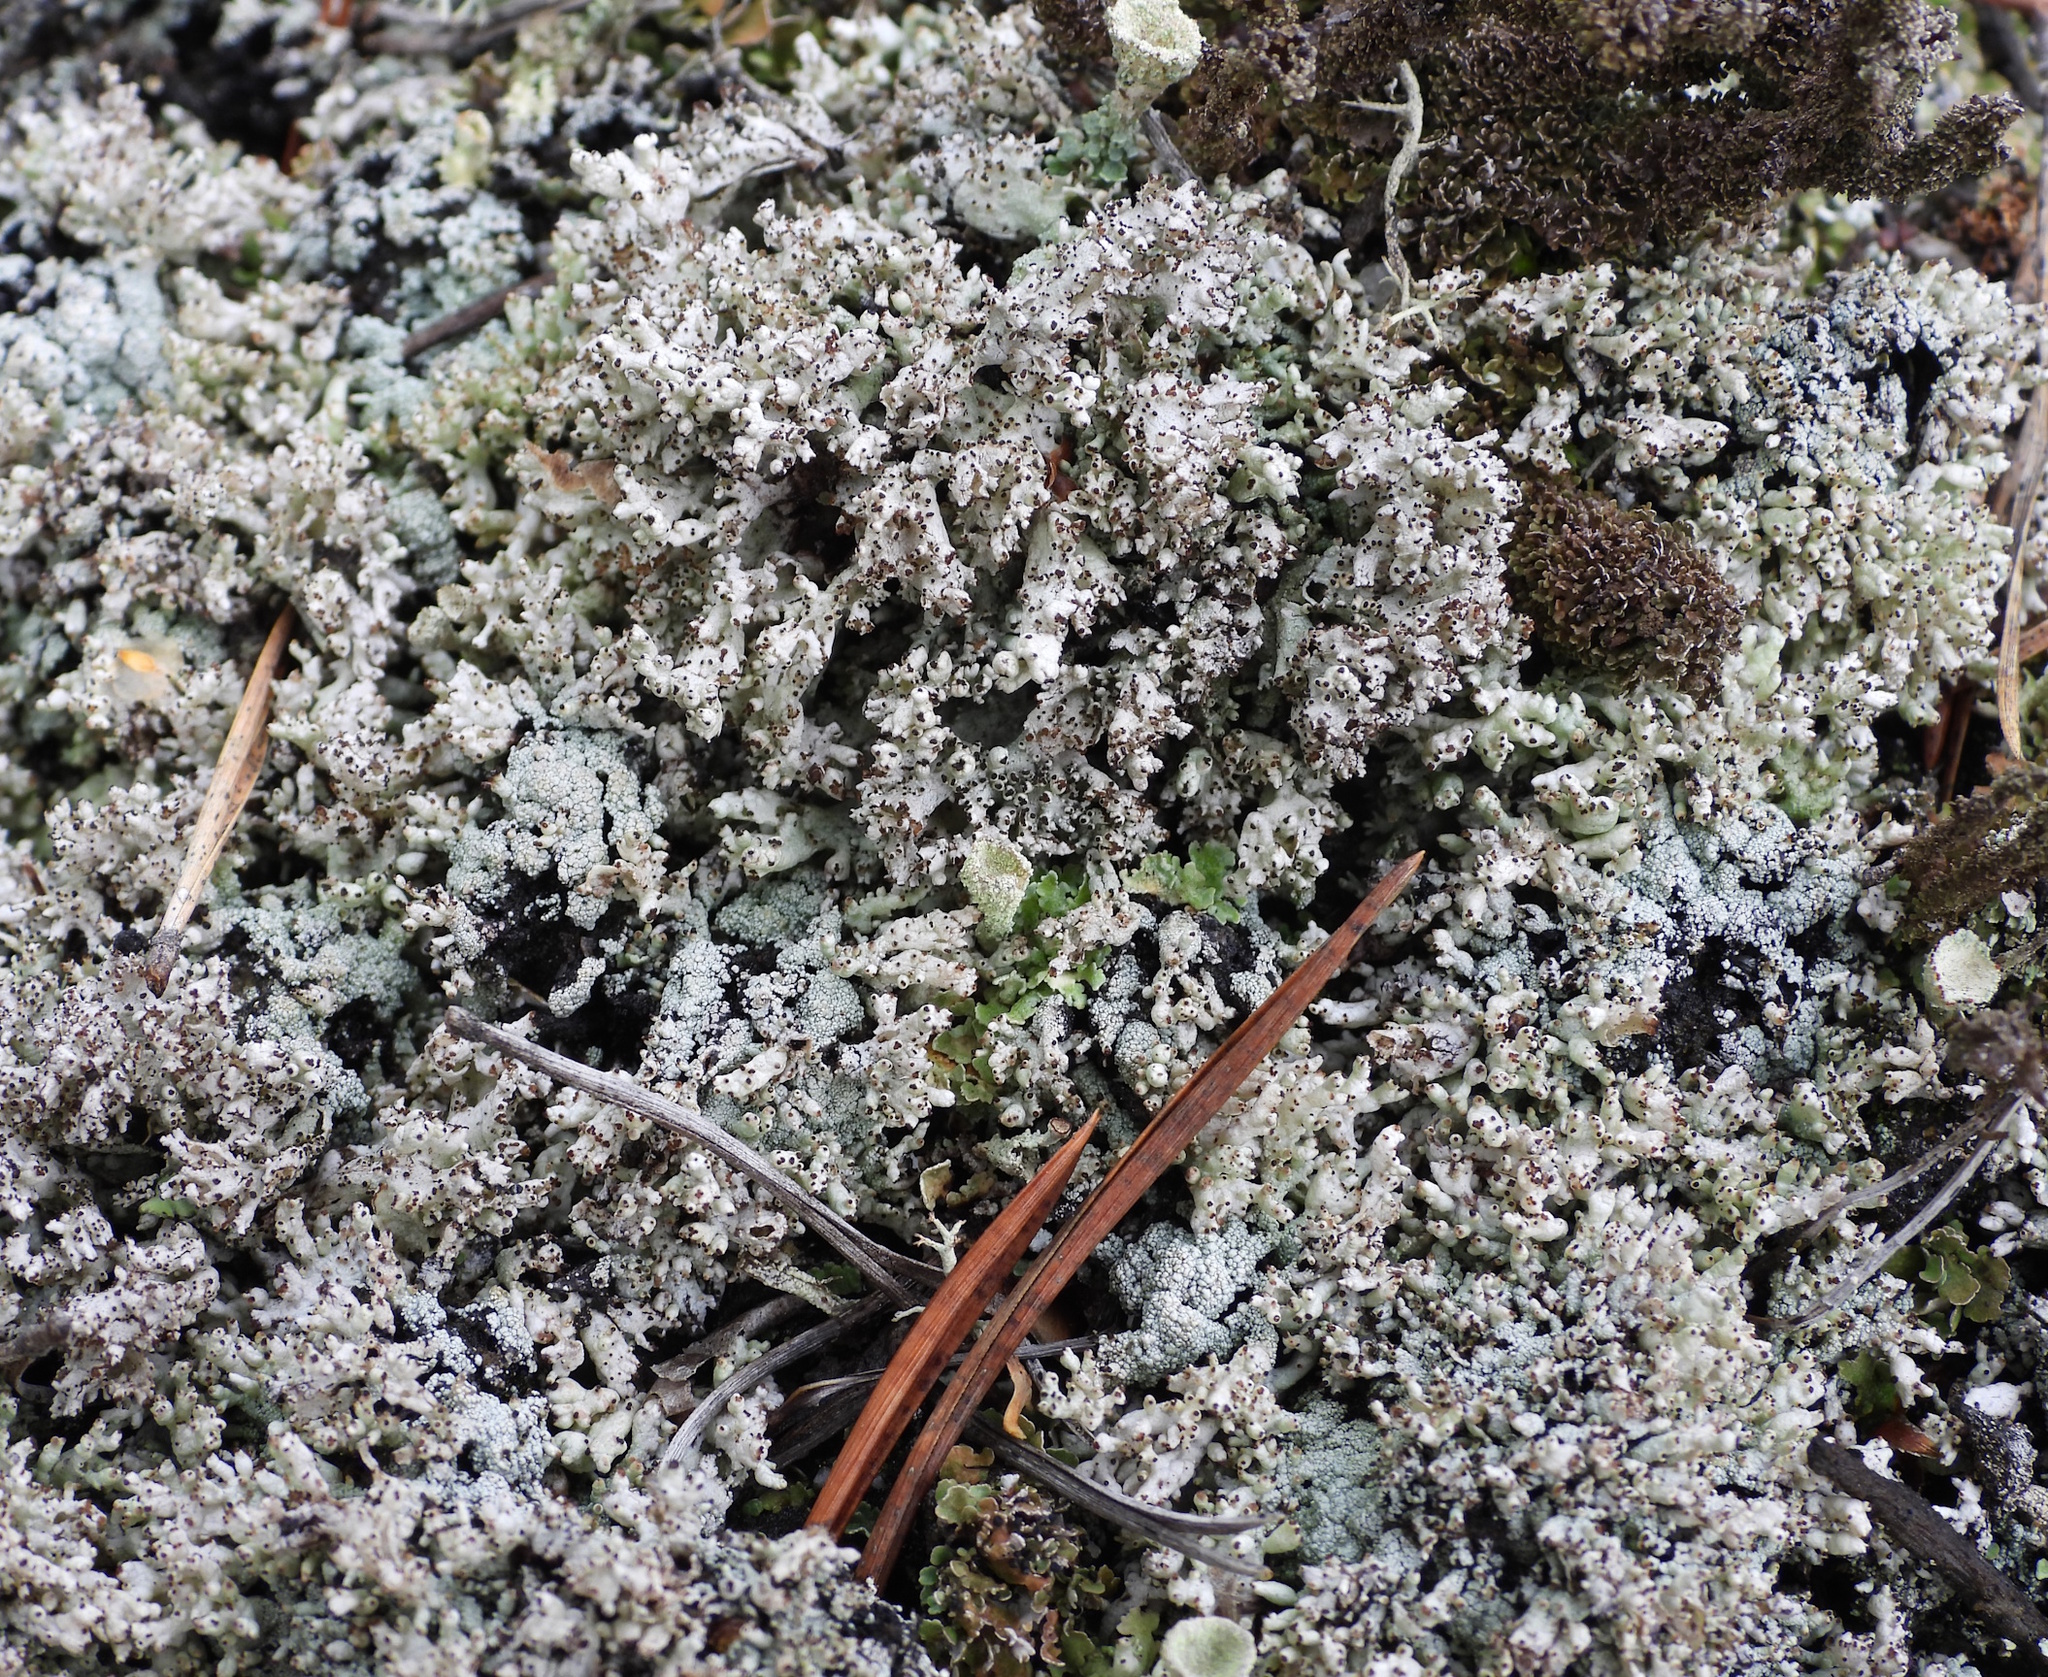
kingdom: Fungi
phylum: Ascomycota
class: Lecanoromycetes
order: Lecanorales
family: Cladoniaceae
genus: Pycnothelia
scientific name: Pycnothelia papillaria
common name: Nipple lichen
